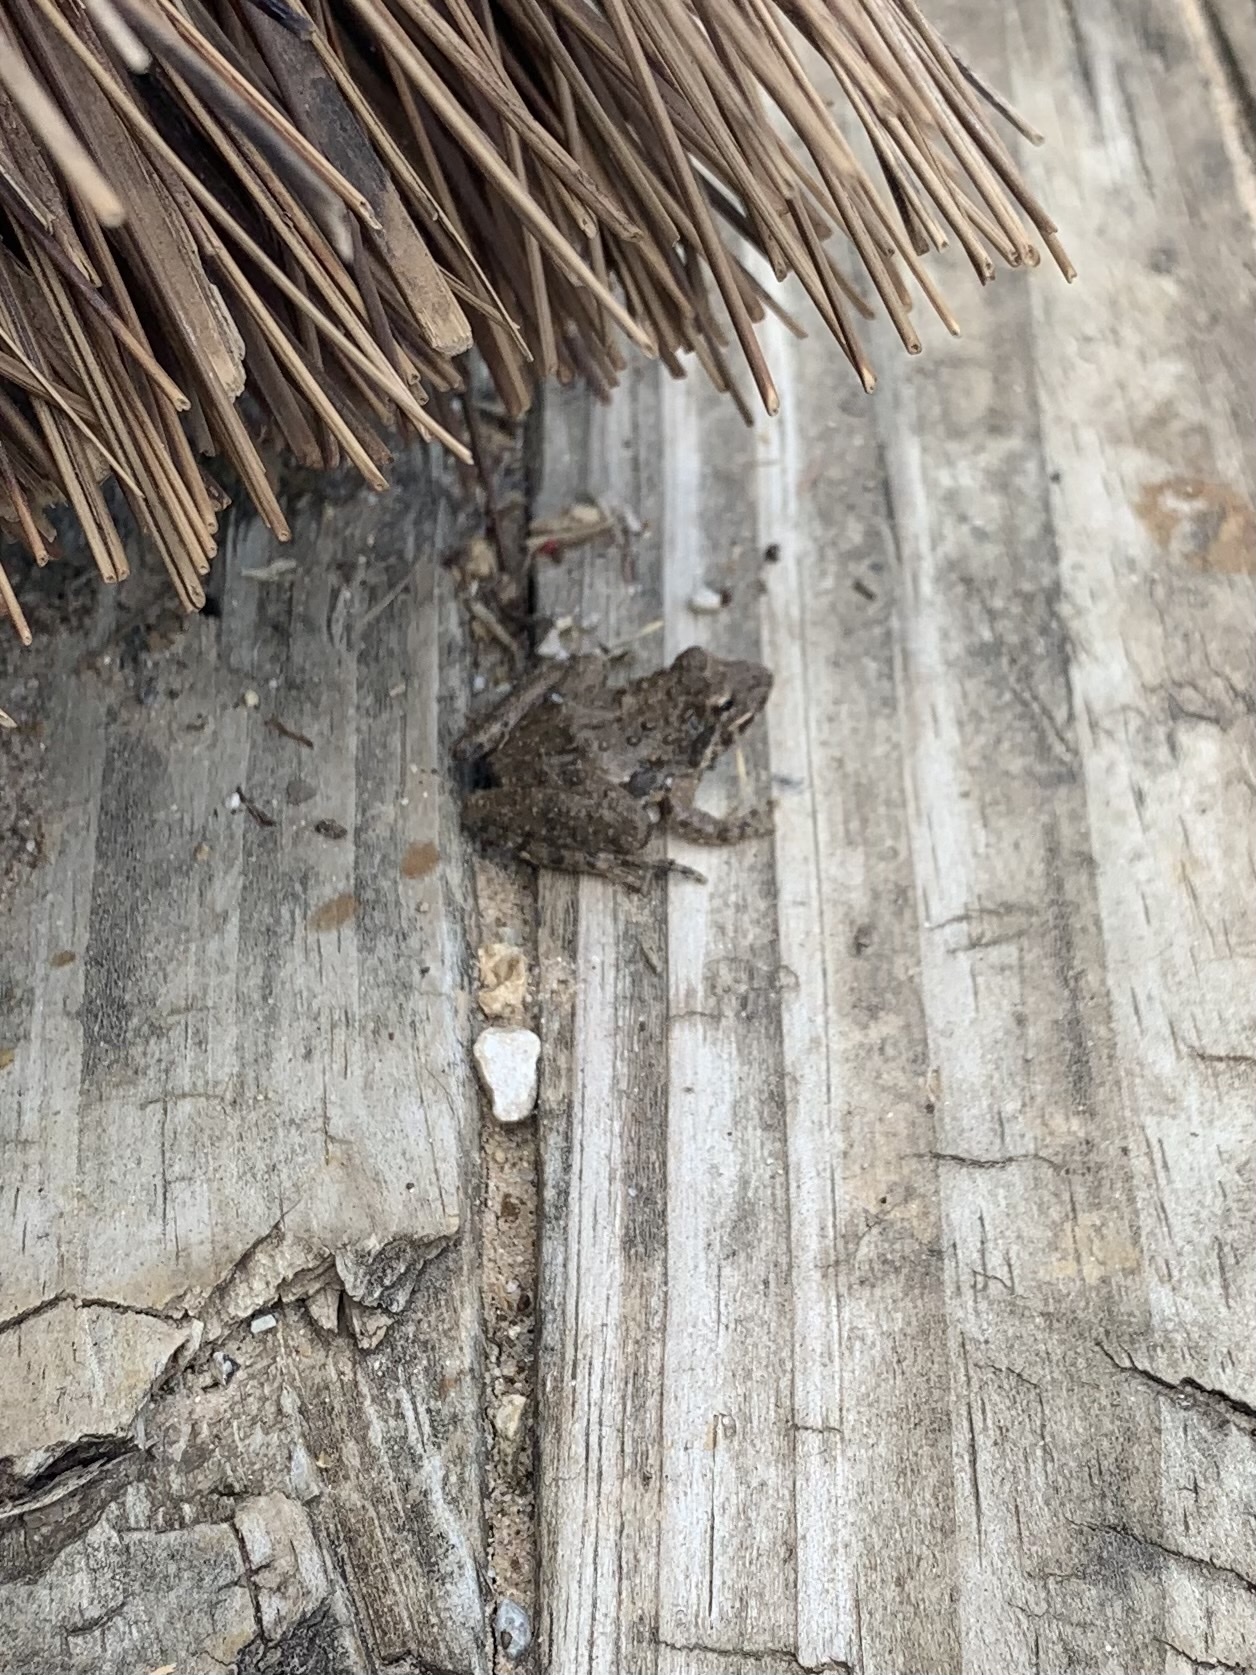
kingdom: Animalia
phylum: Chordata
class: Amphibia
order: Anura
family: Hylidae
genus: Acris
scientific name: Acris blanchardi
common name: Blanchard's cricket frog
